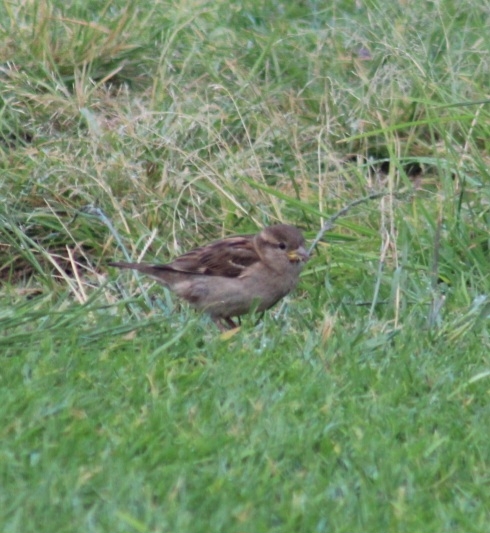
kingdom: Animalia
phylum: Chordata
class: Aves
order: Passeriformes
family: Passeridae
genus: Passer
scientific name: Passer domesticus
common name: House sparrow
